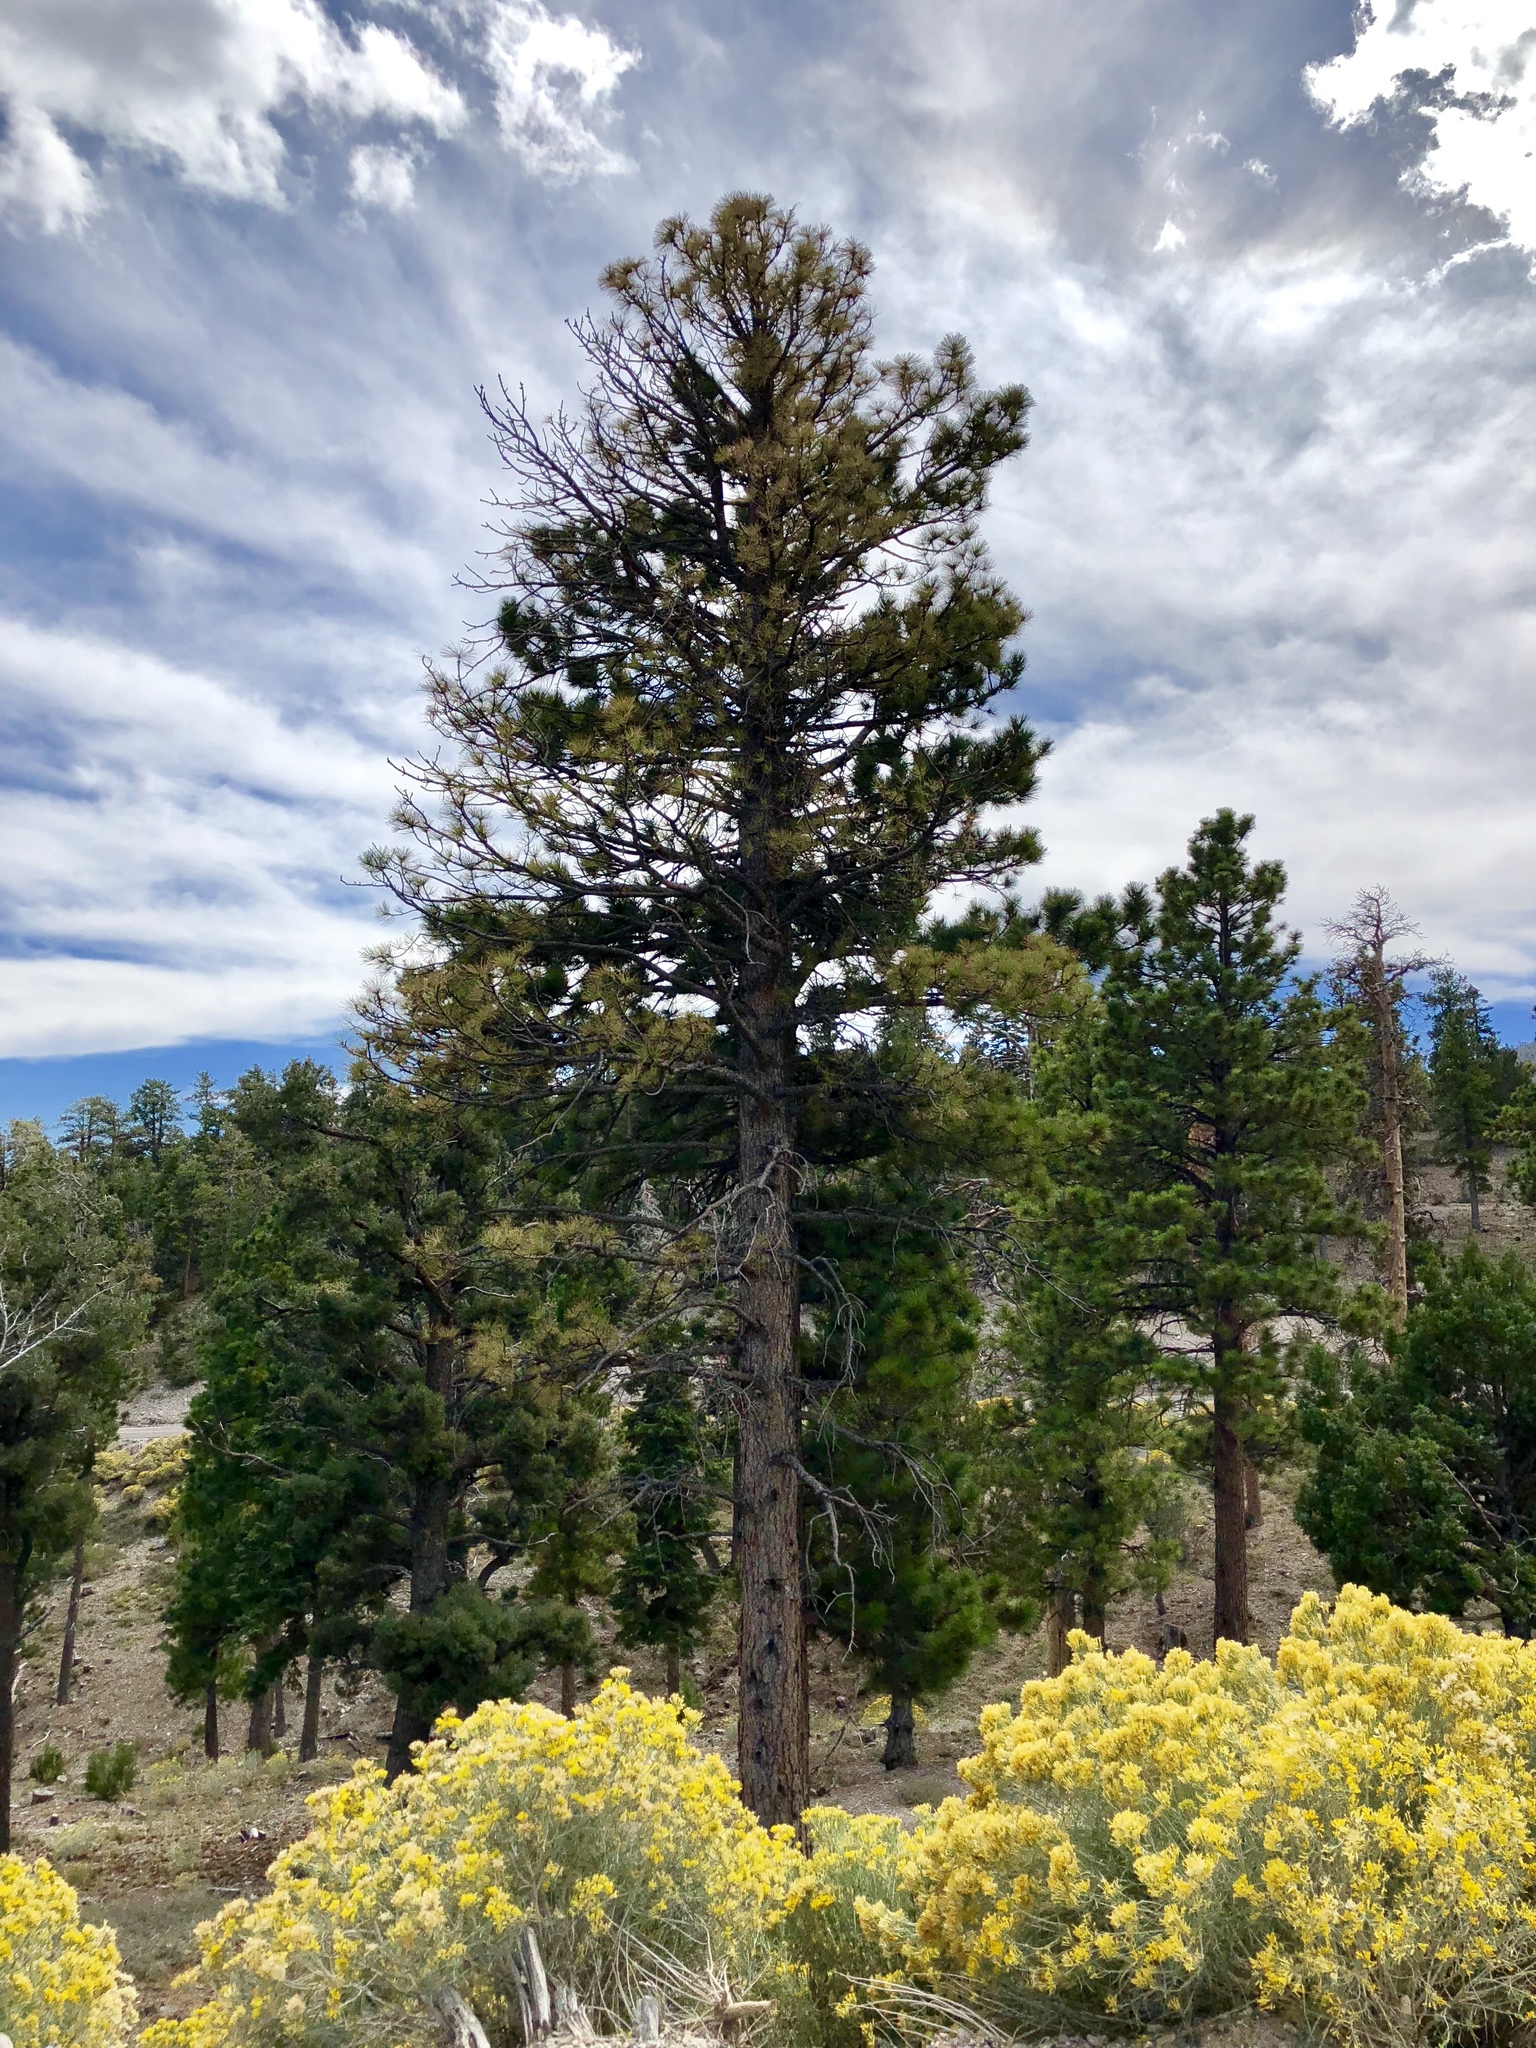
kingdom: Plantae
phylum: Tracheophyta
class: Pinopsida
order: Pinales
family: Pinaceae
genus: Pinus
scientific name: Pinus ponderosa
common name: Western yellow-pine
